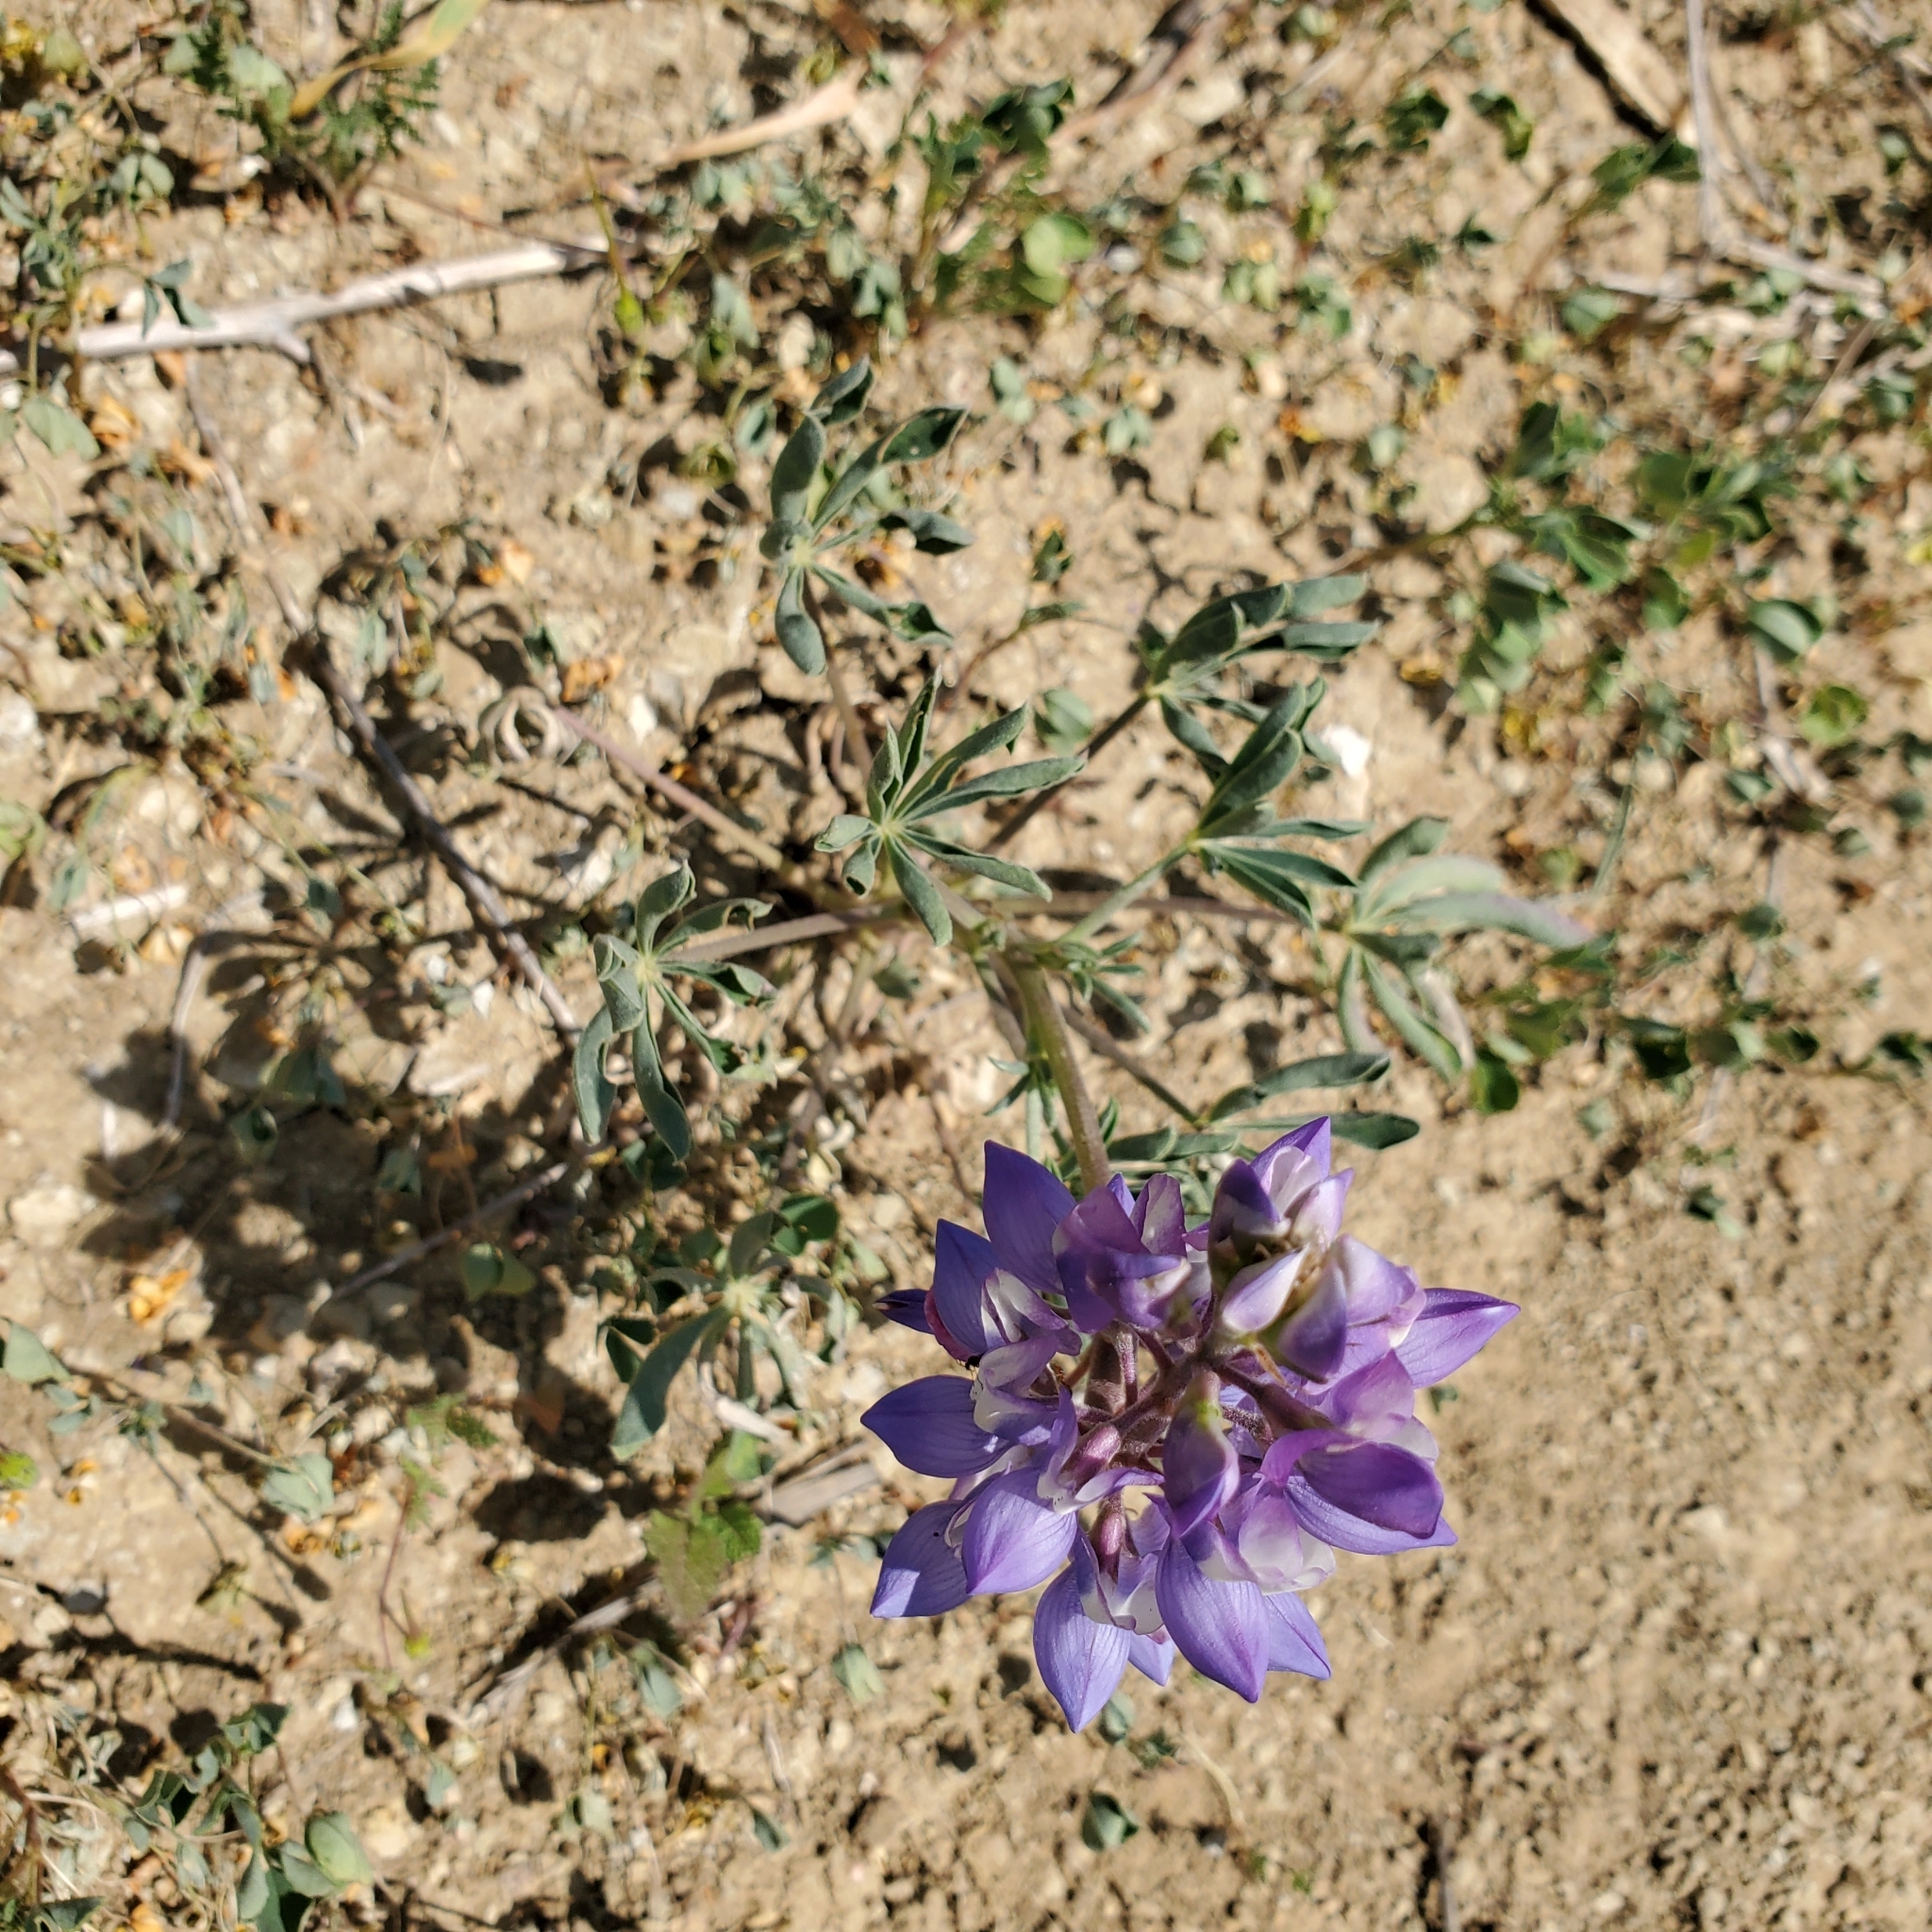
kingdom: Plantae
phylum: Tracheophyta
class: Magnoliopsida
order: Fabales
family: Fabaceae
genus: Lupinus
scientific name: Lupinus succulentus
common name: Arroyo lupine
